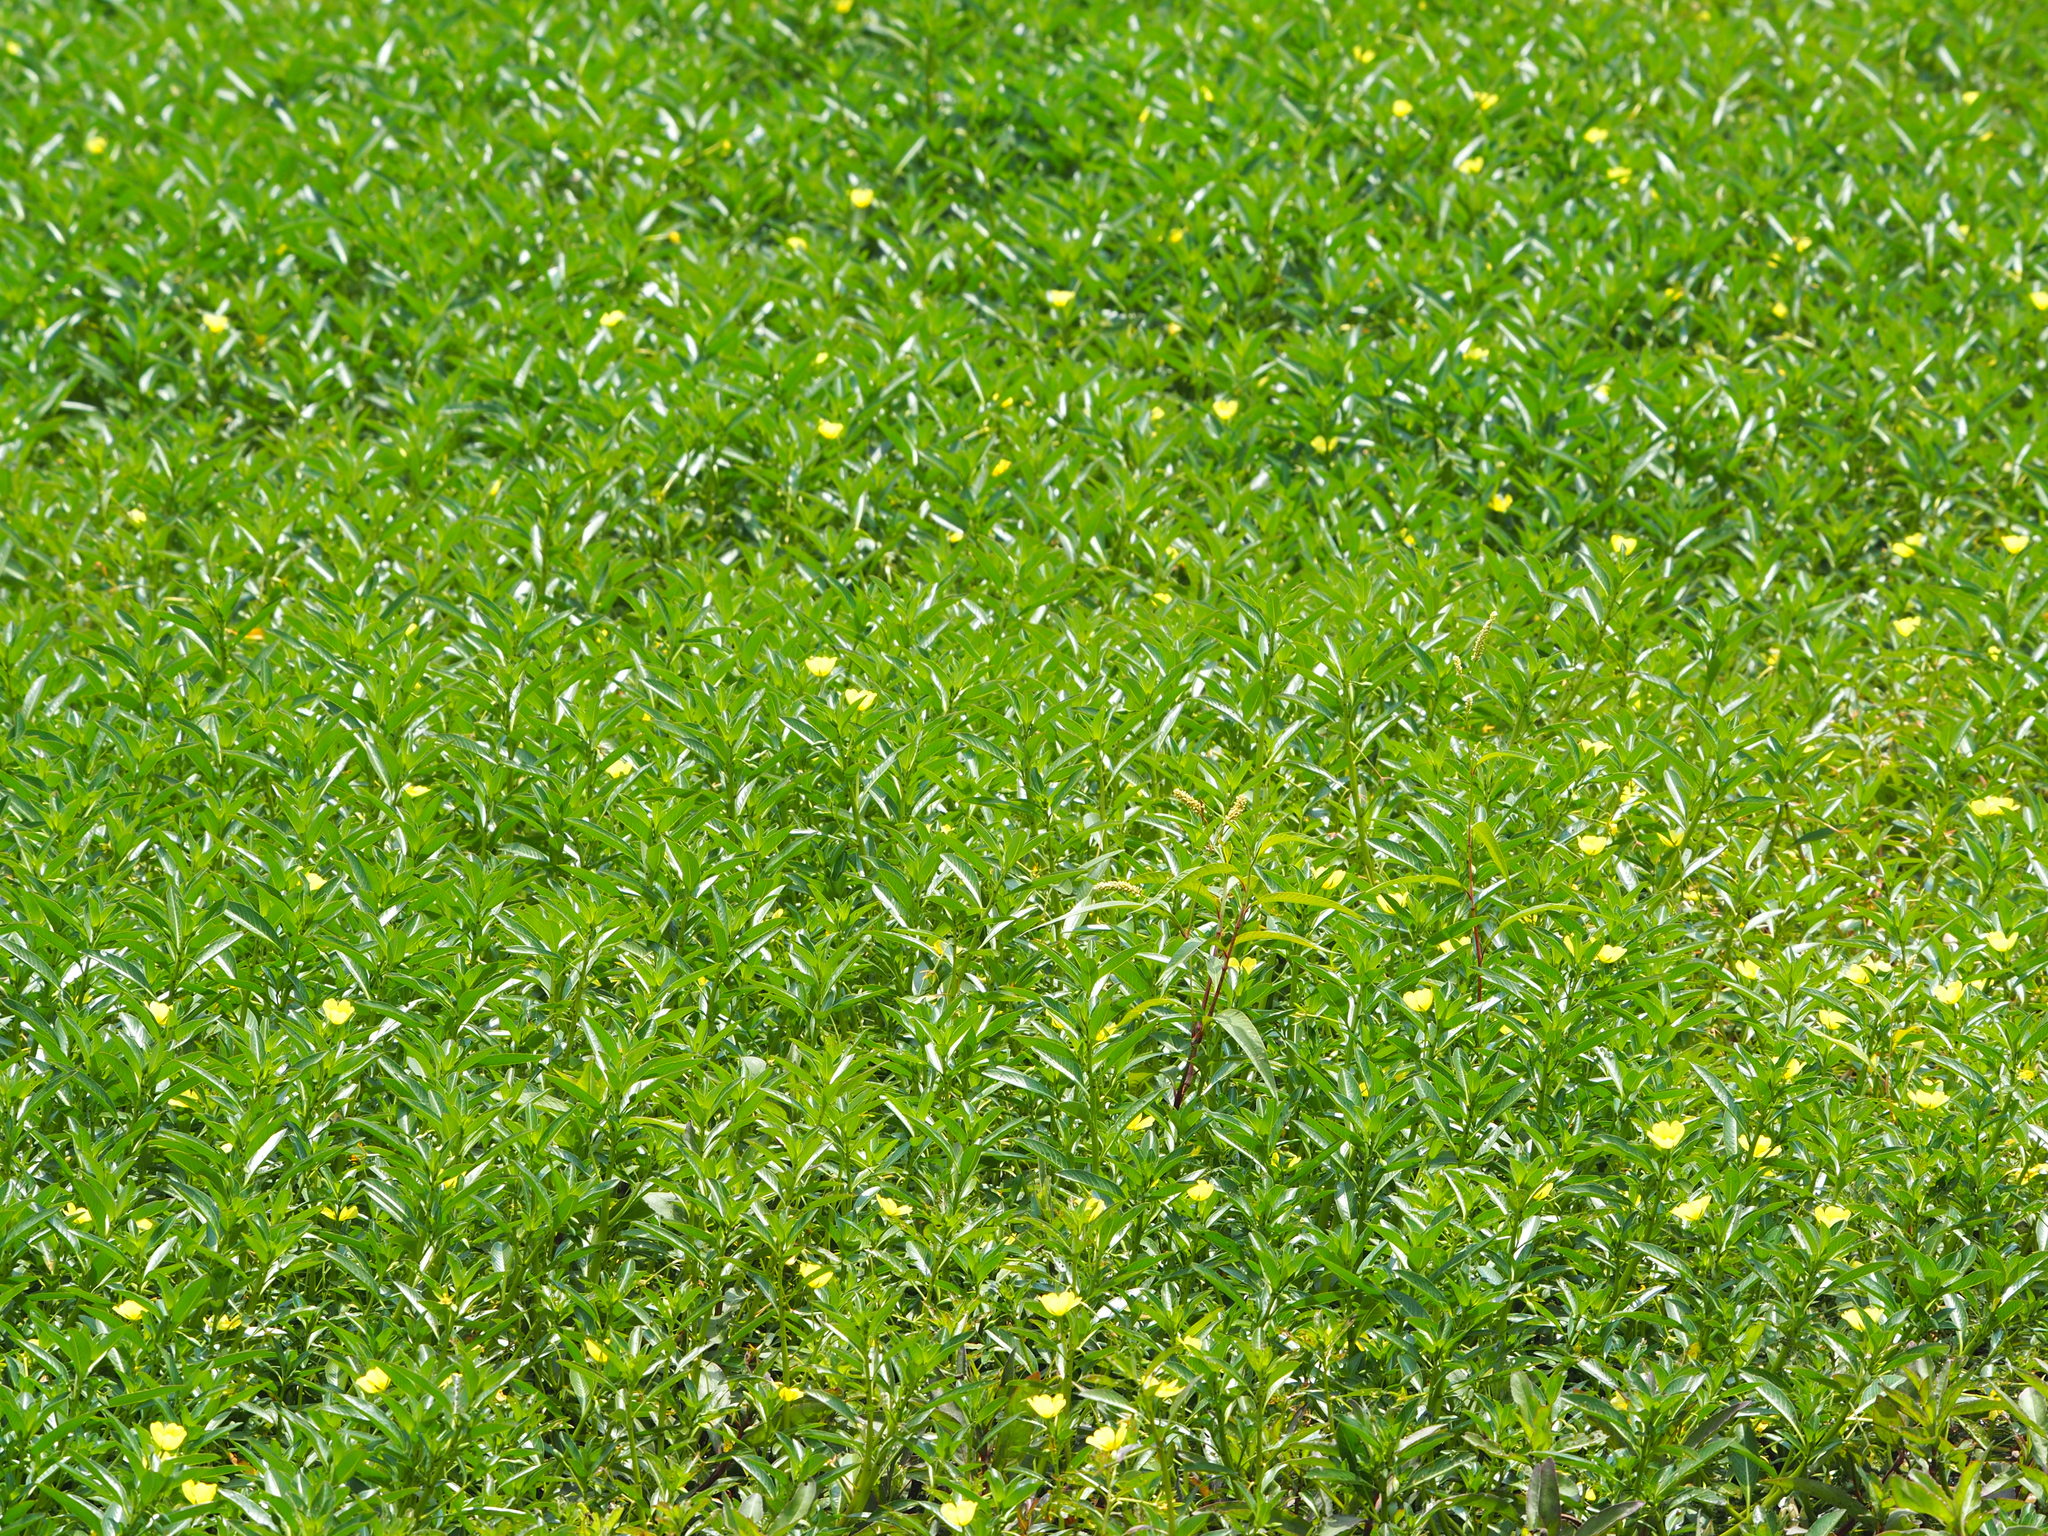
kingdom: Plantae
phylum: Tracheophyta
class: Magnoliopsida
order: Myrtales
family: Onagraceae
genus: Ludwigia
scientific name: Ludwigia taiwanensis
